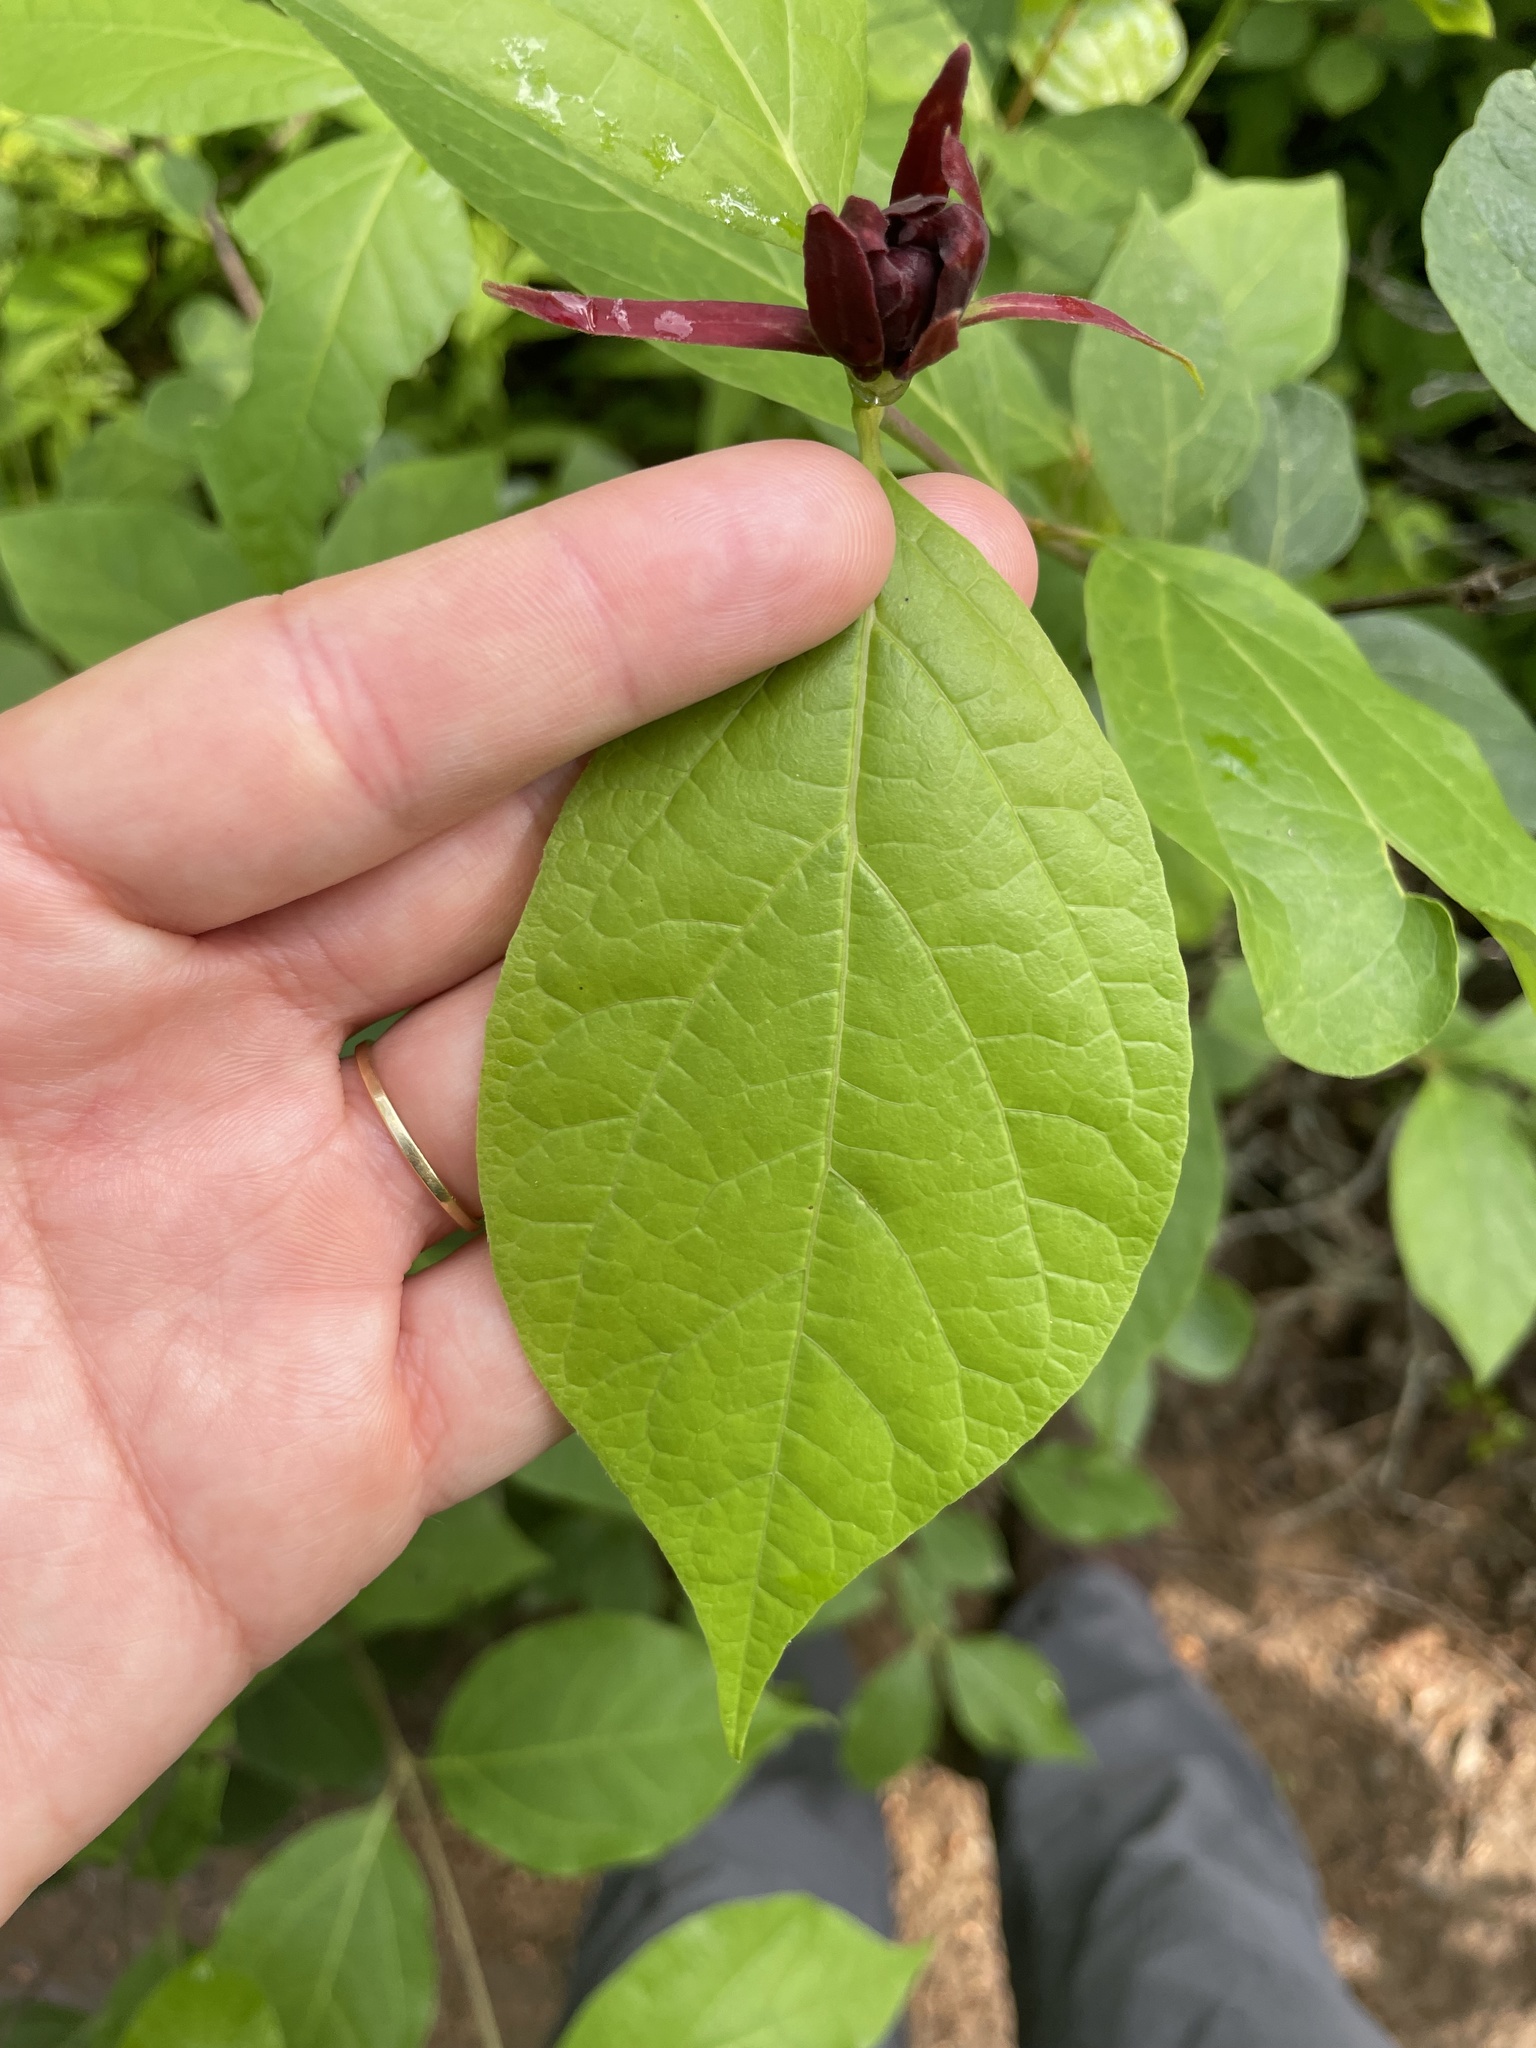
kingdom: Plantae
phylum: Tracheophyta
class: Magnoliopsida
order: Laurales
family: Calycanthaceae
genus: Calycanthus
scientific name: Calycanthus floridus
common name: Carolina-allspice
